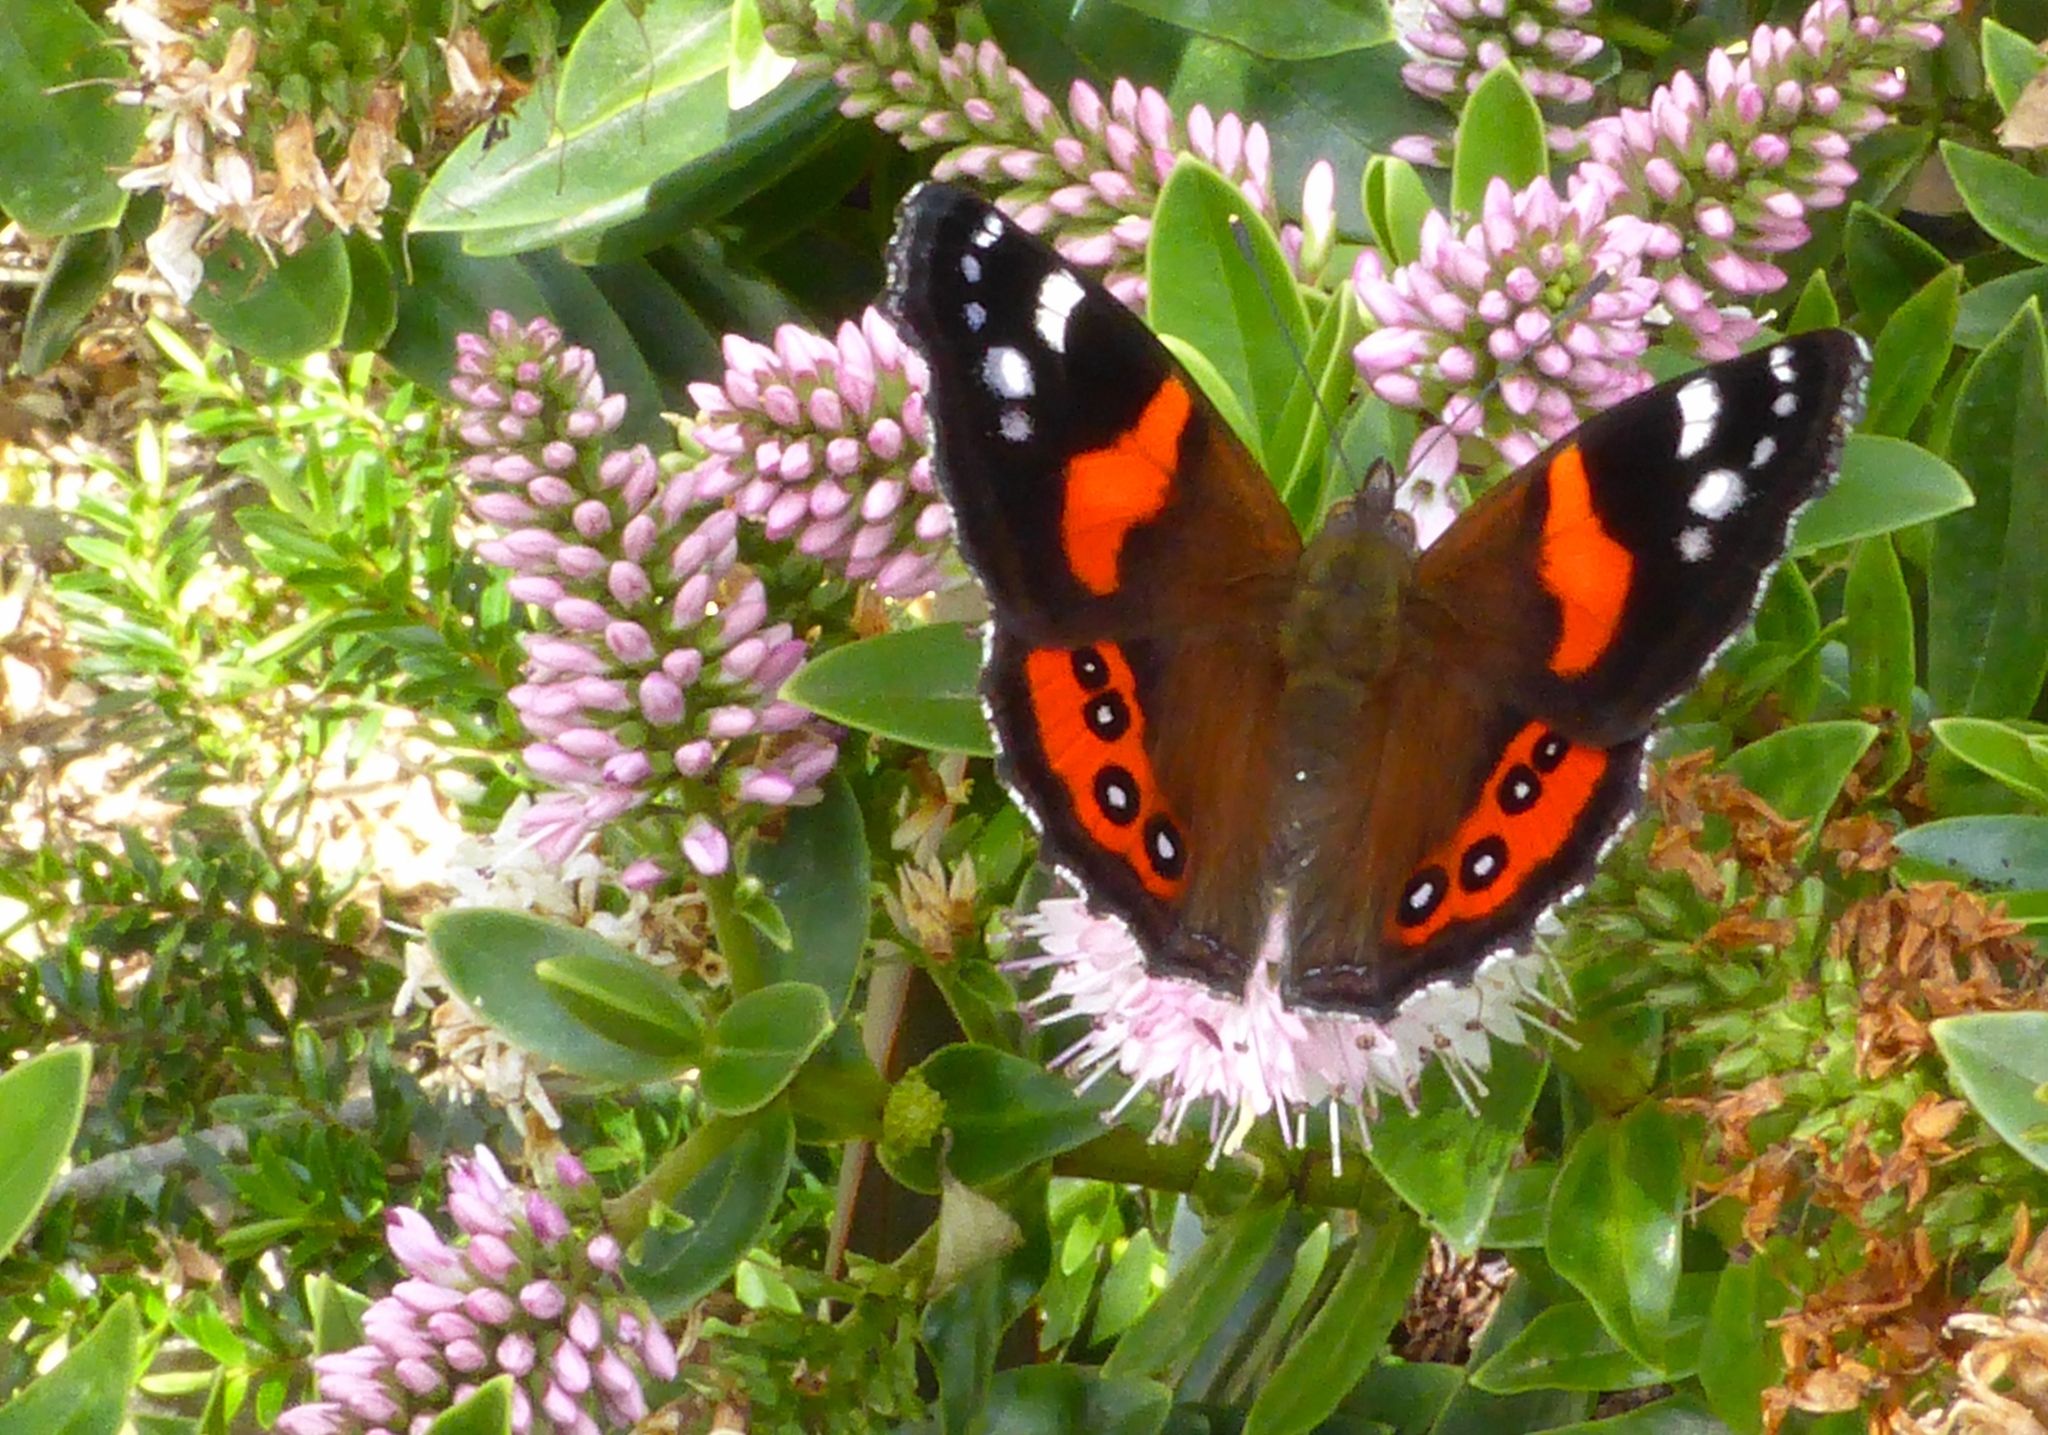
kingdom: Animalia
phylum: Arthropoda
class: Insecta
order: Lepidoptera
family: Nymphalidae
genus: Vanessa
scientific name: Vanessa gonerilla
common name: New zealand red admiral
